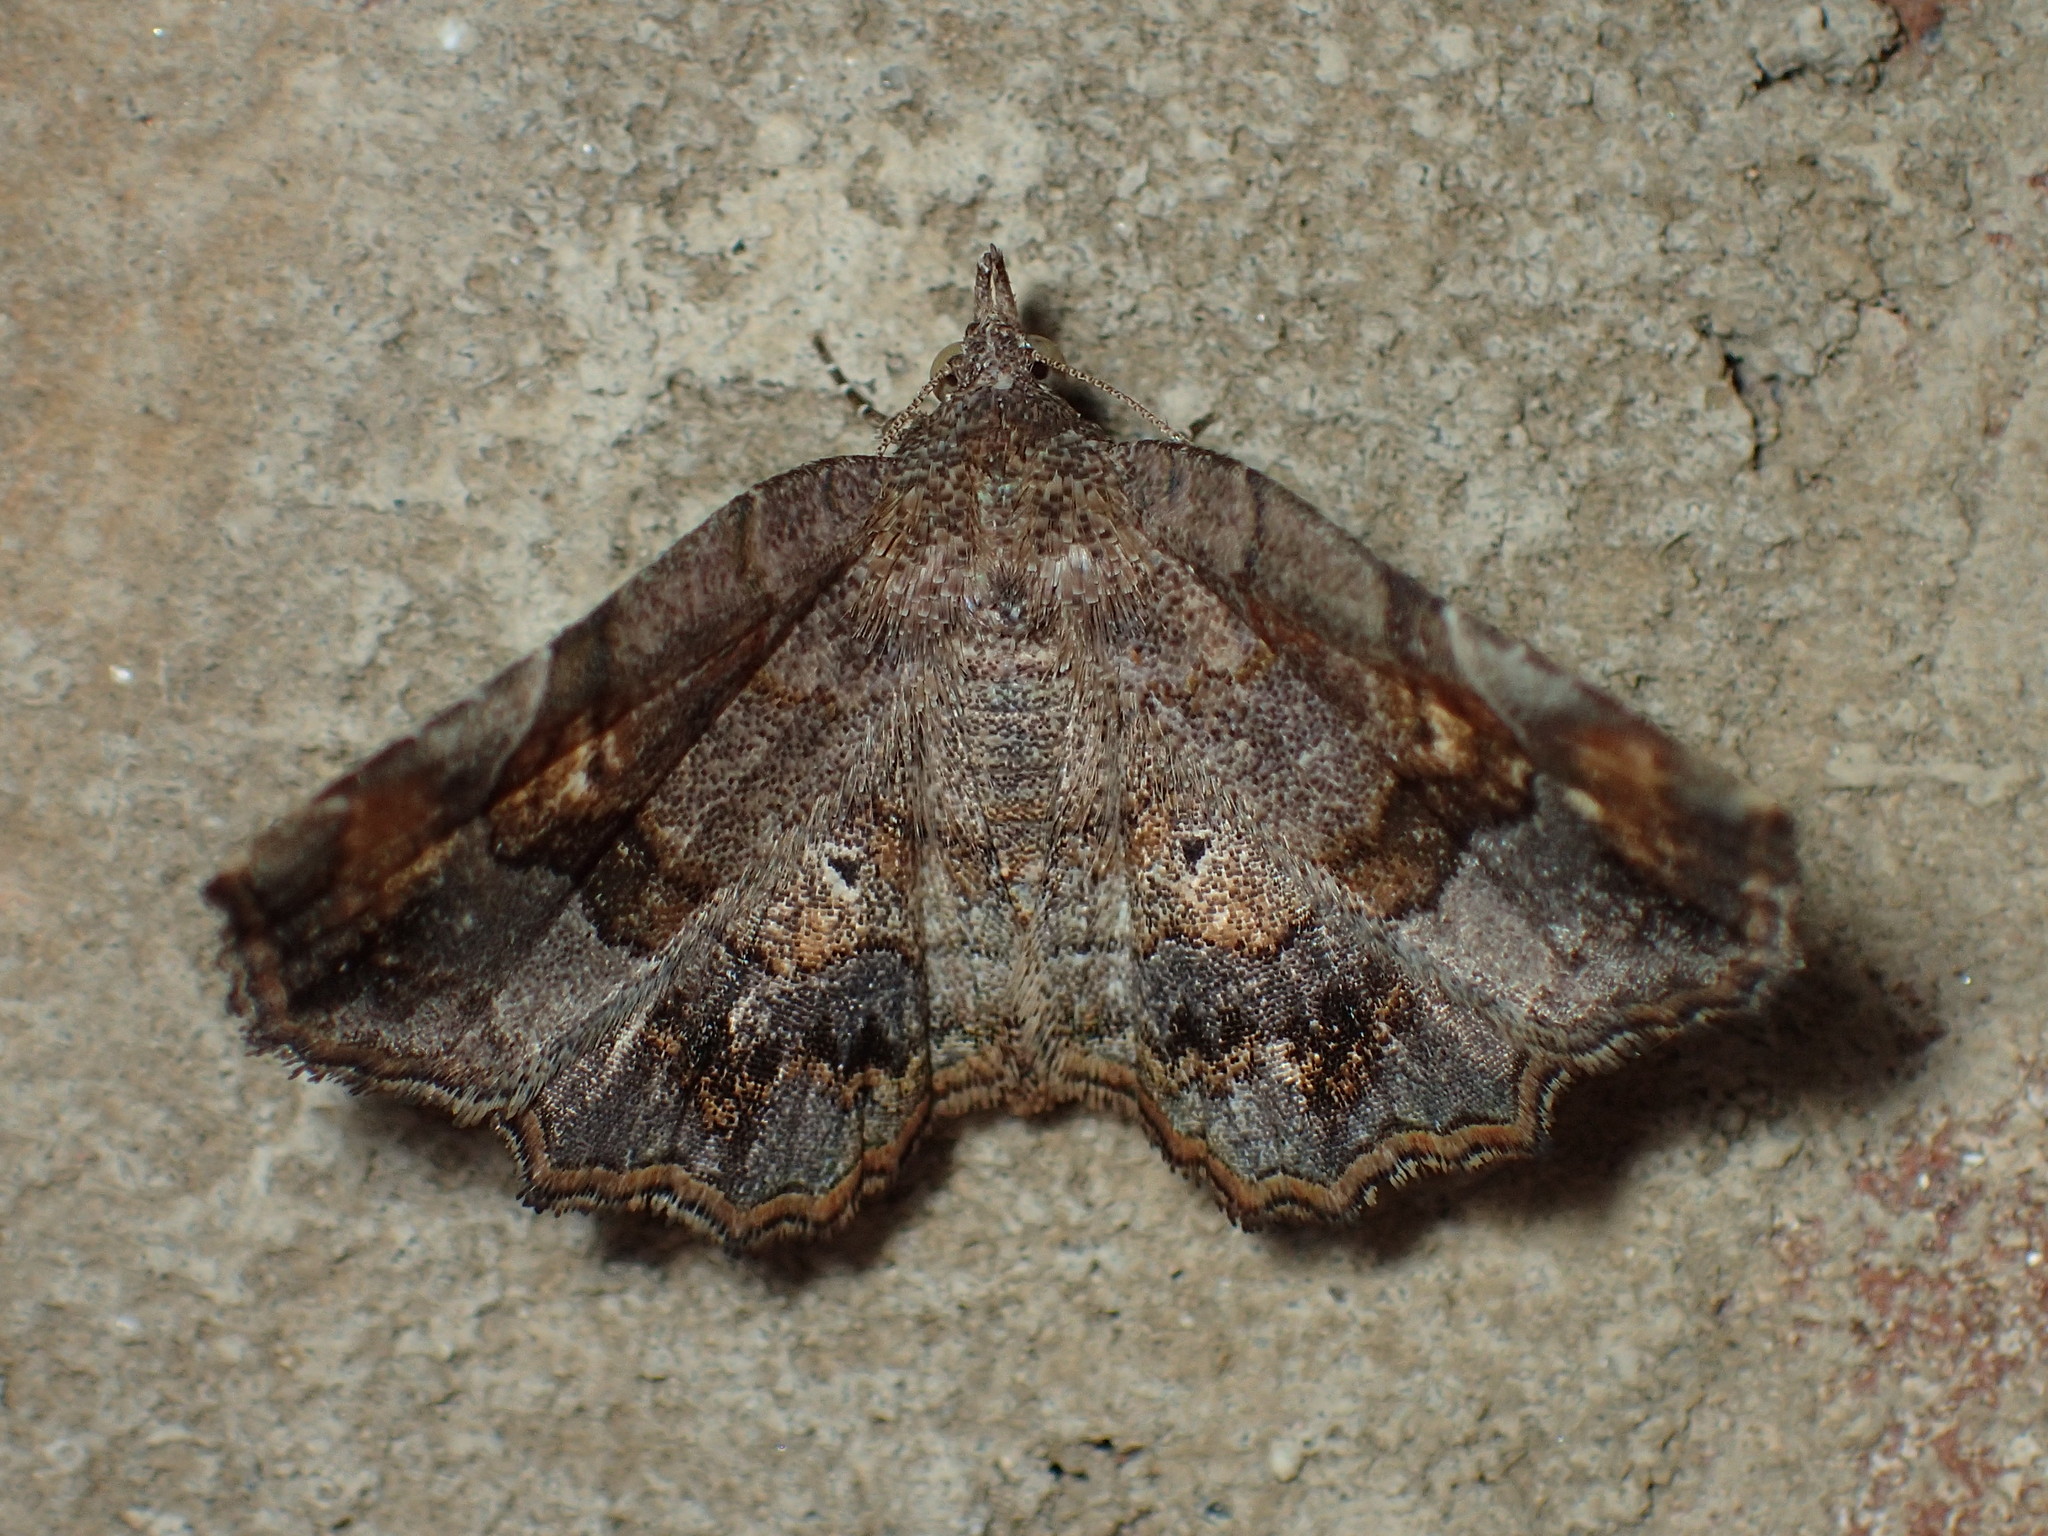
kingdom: Animalia
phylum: Arthropoda
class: Insecta
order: Lepidoptera
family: Erebidae
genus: Pangrapta
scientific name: Pangrapta decoralis
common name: Decorated owlet
